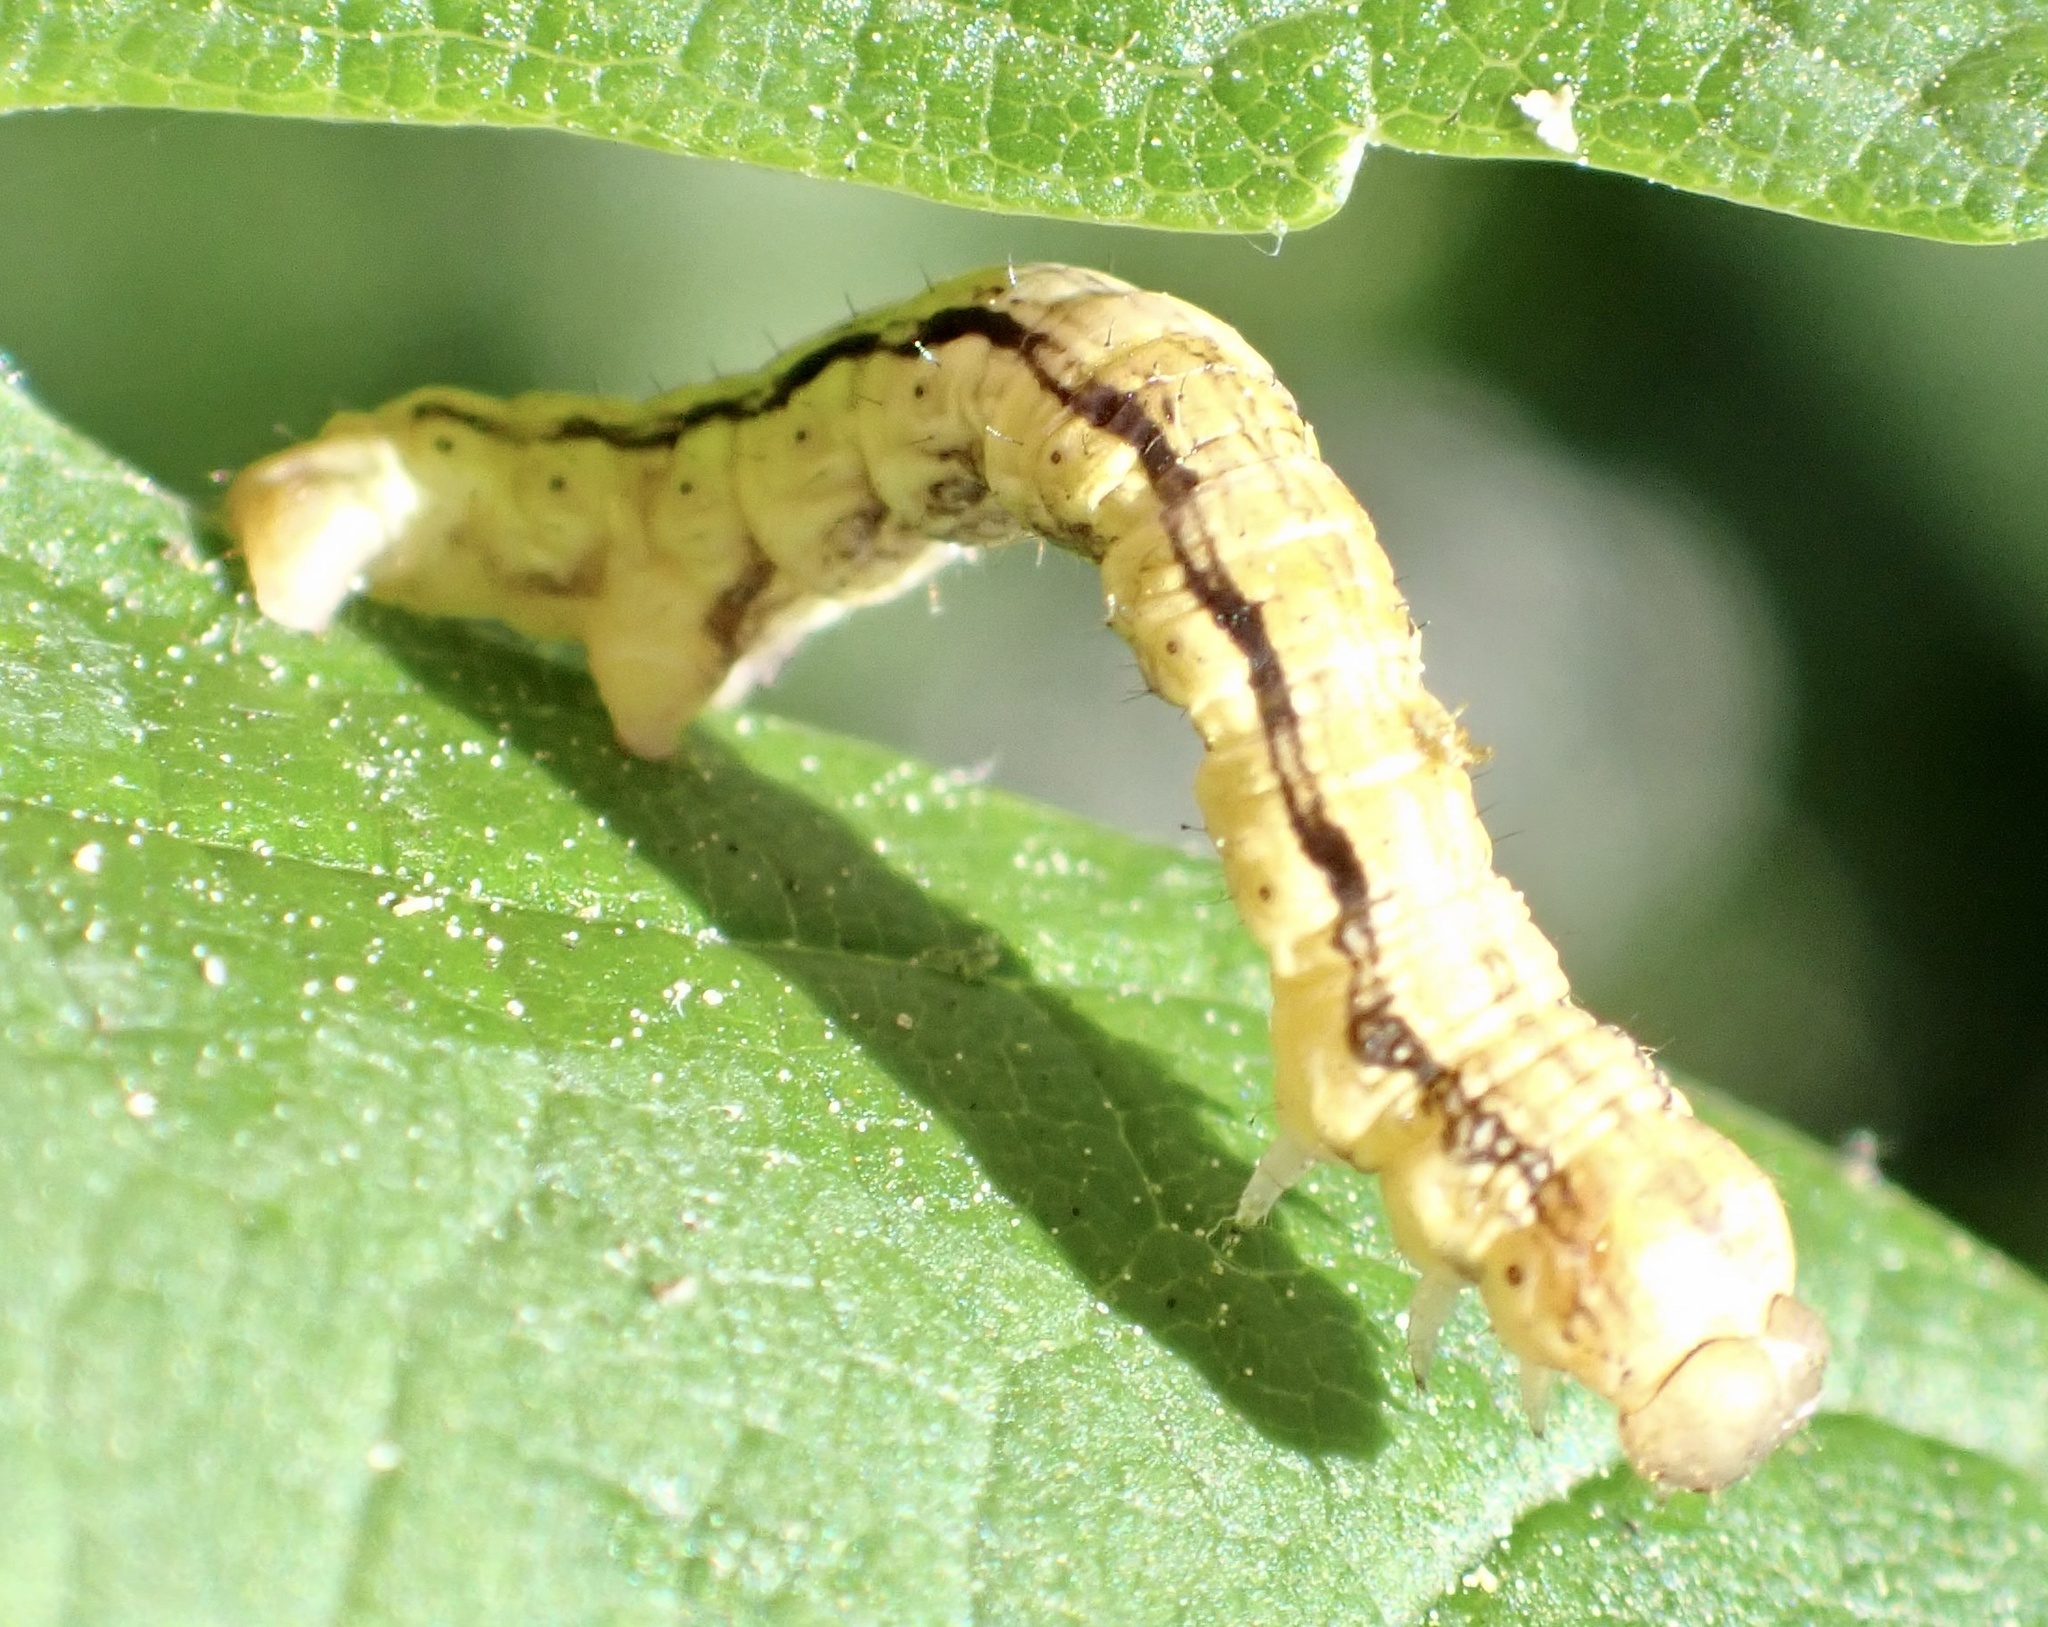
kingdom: Animalia
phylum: Arthropoda
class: Insecta
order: Lepidoptera
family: Geometridae
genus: Erannis
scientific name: Erannis defoliaria
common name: Mottled umber
